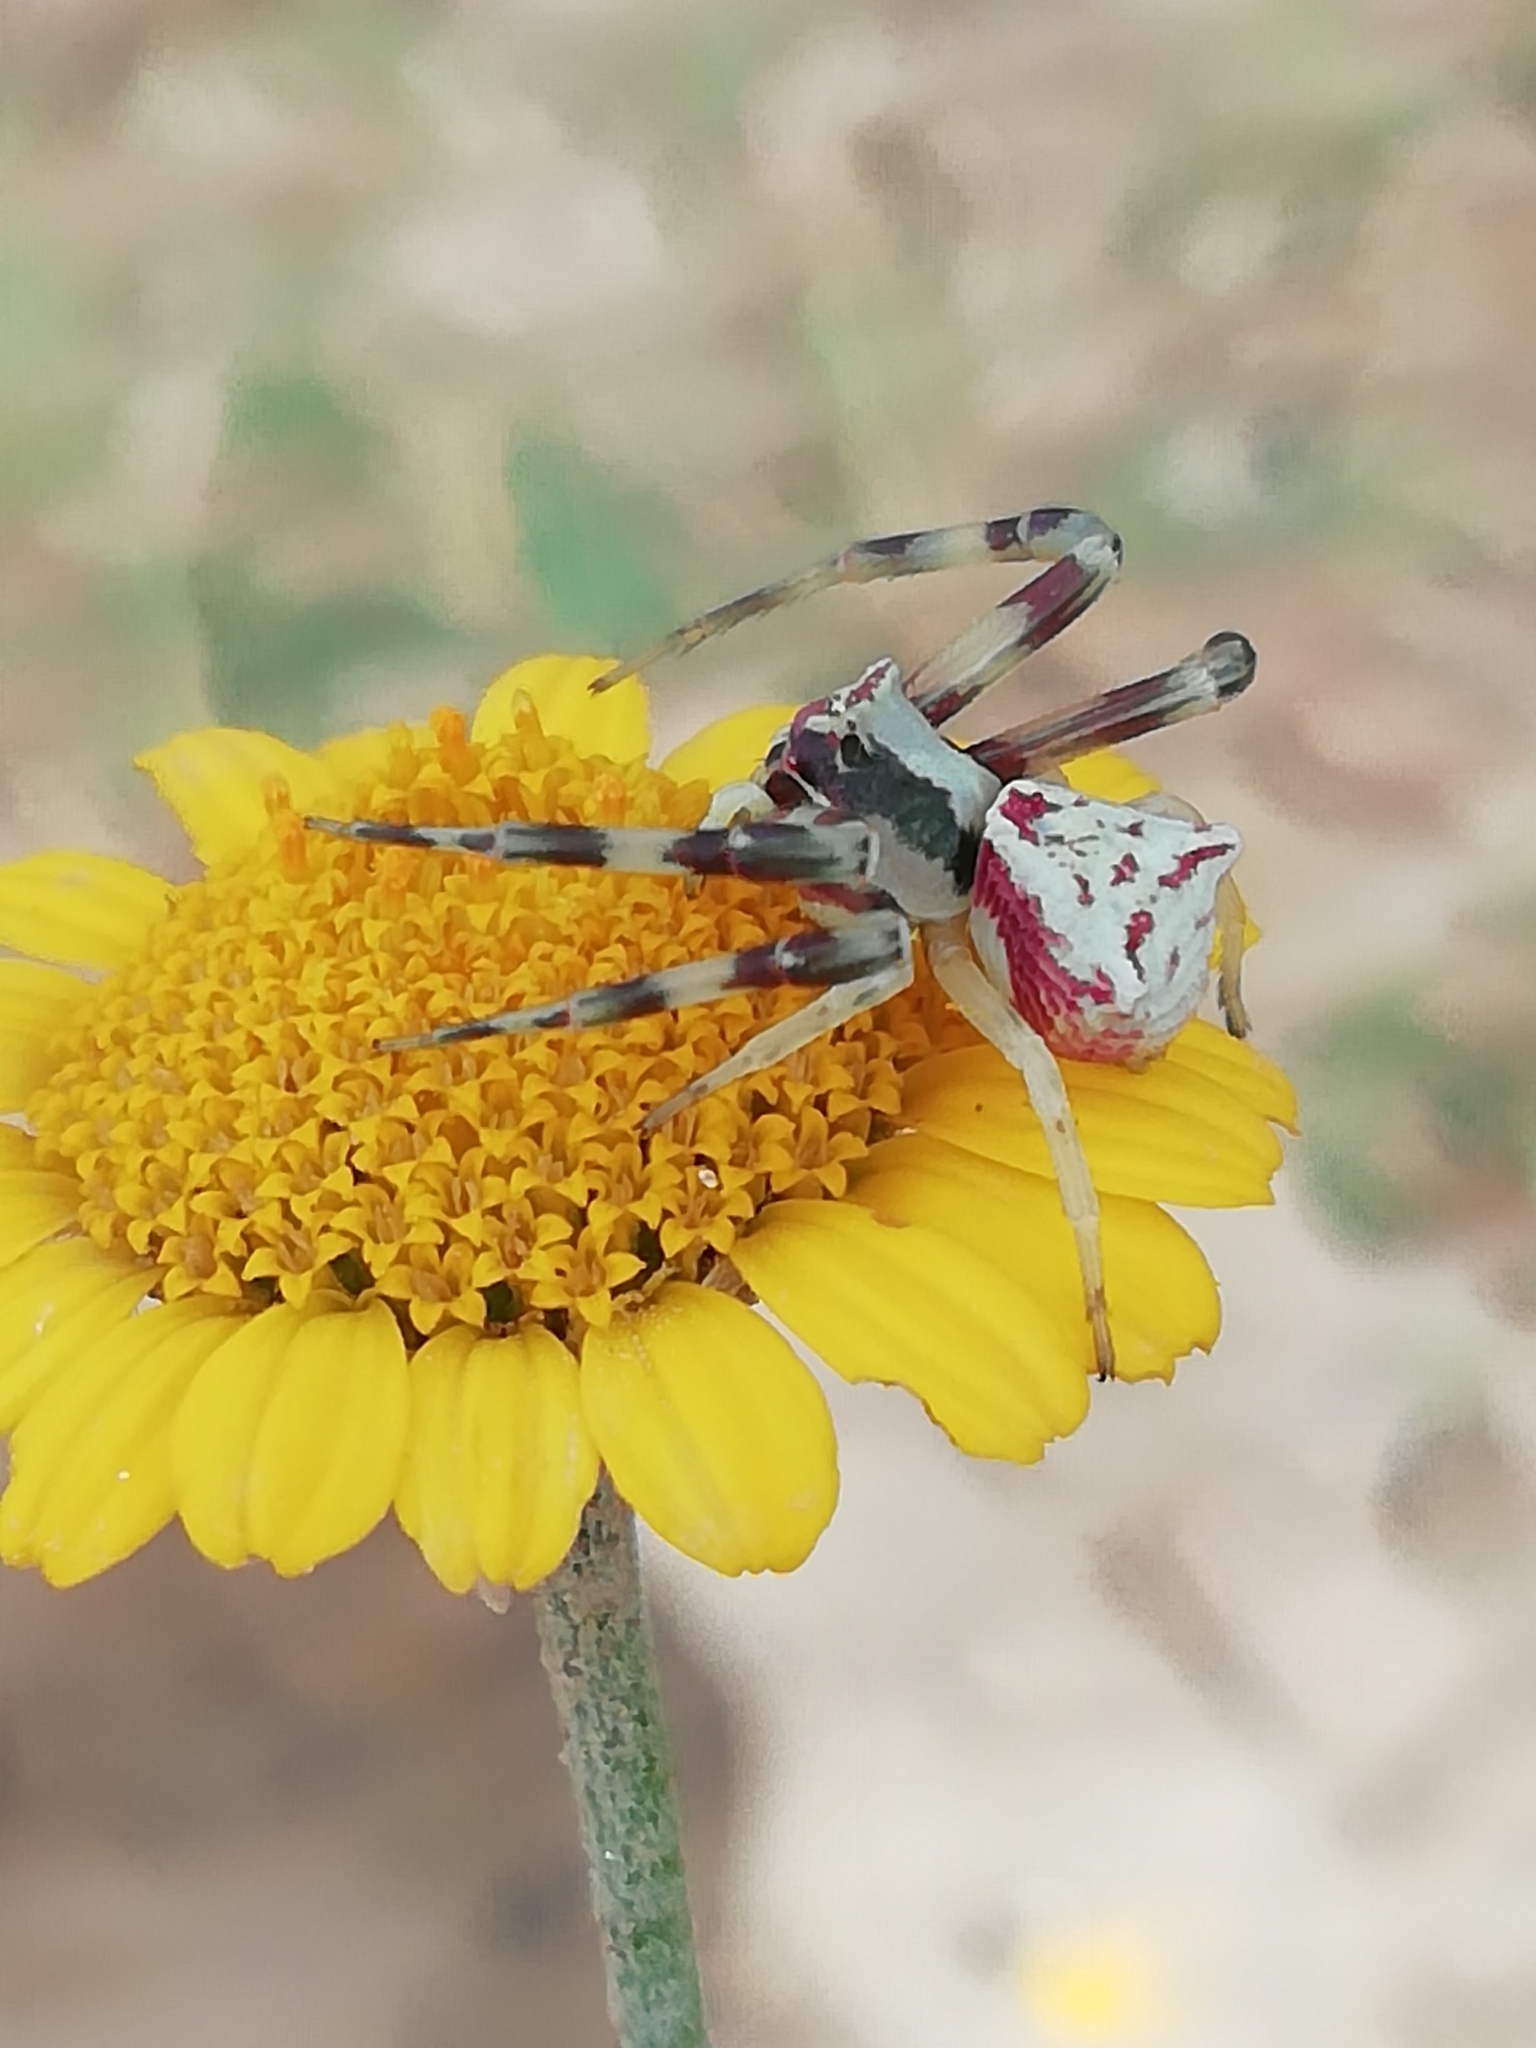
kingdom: Animalia
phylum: Arthropoda
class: Arachnida
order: Araneae
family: Thomisidae
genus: Thomisus
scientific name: Thomisus onustus
